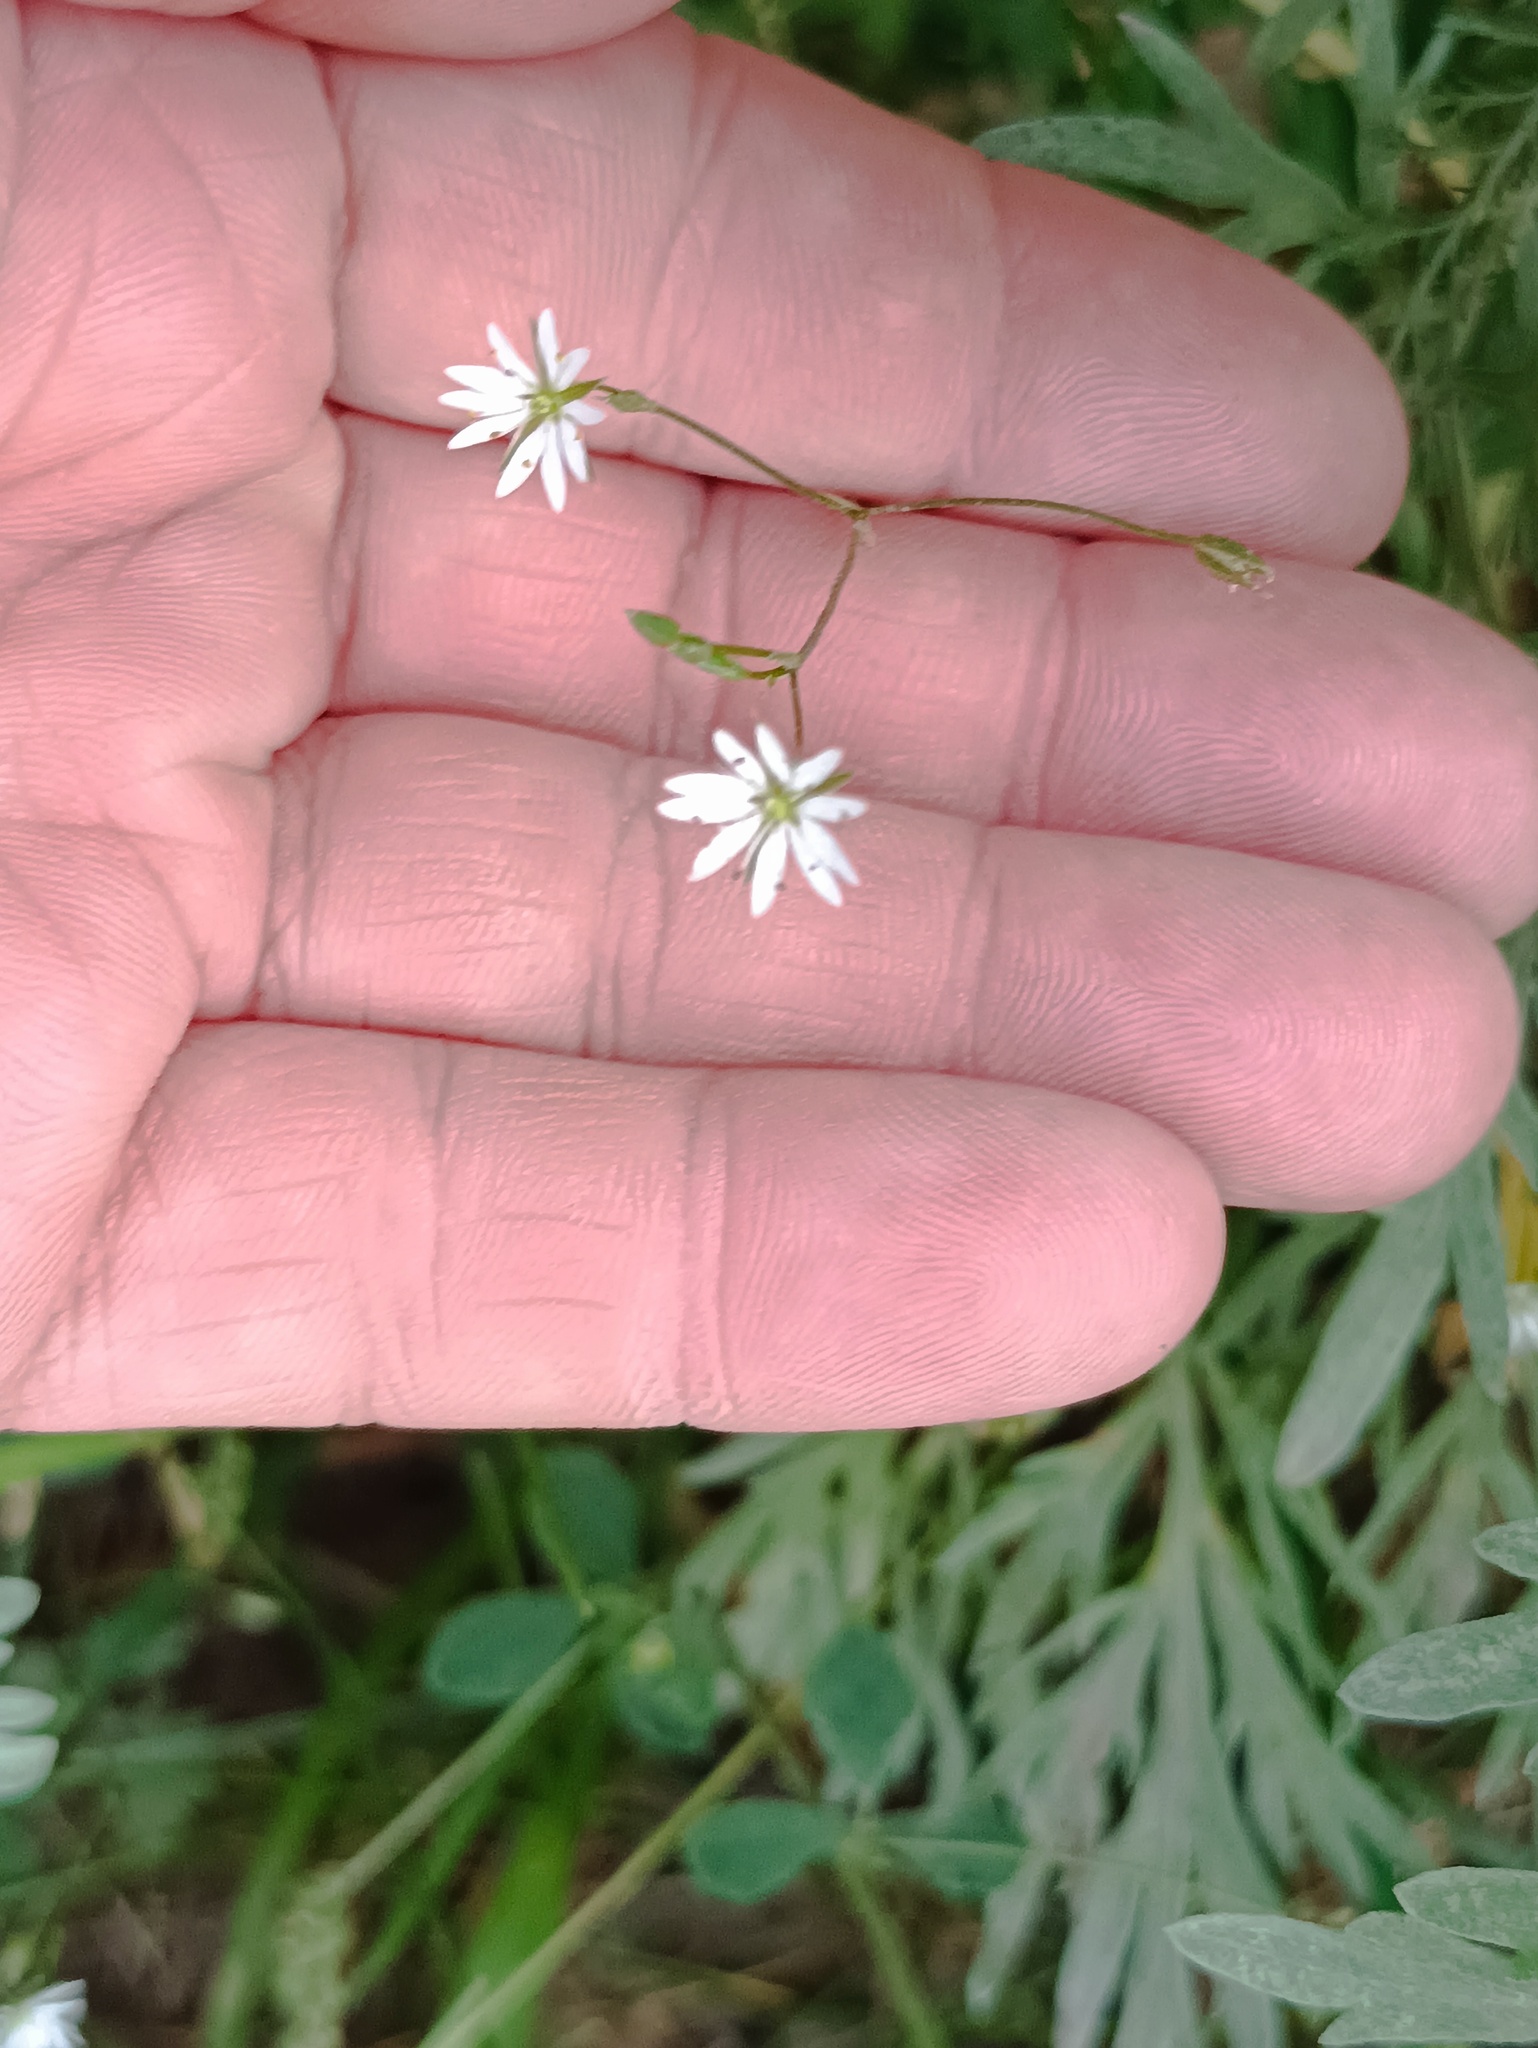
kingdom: Plantae
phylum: Tracheophyta
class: Magnoliopsida
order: Caryophyllales
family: Caryophyllaceae
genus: Stellaria
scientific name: Stellaria graminea
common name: Grass-like starwort
